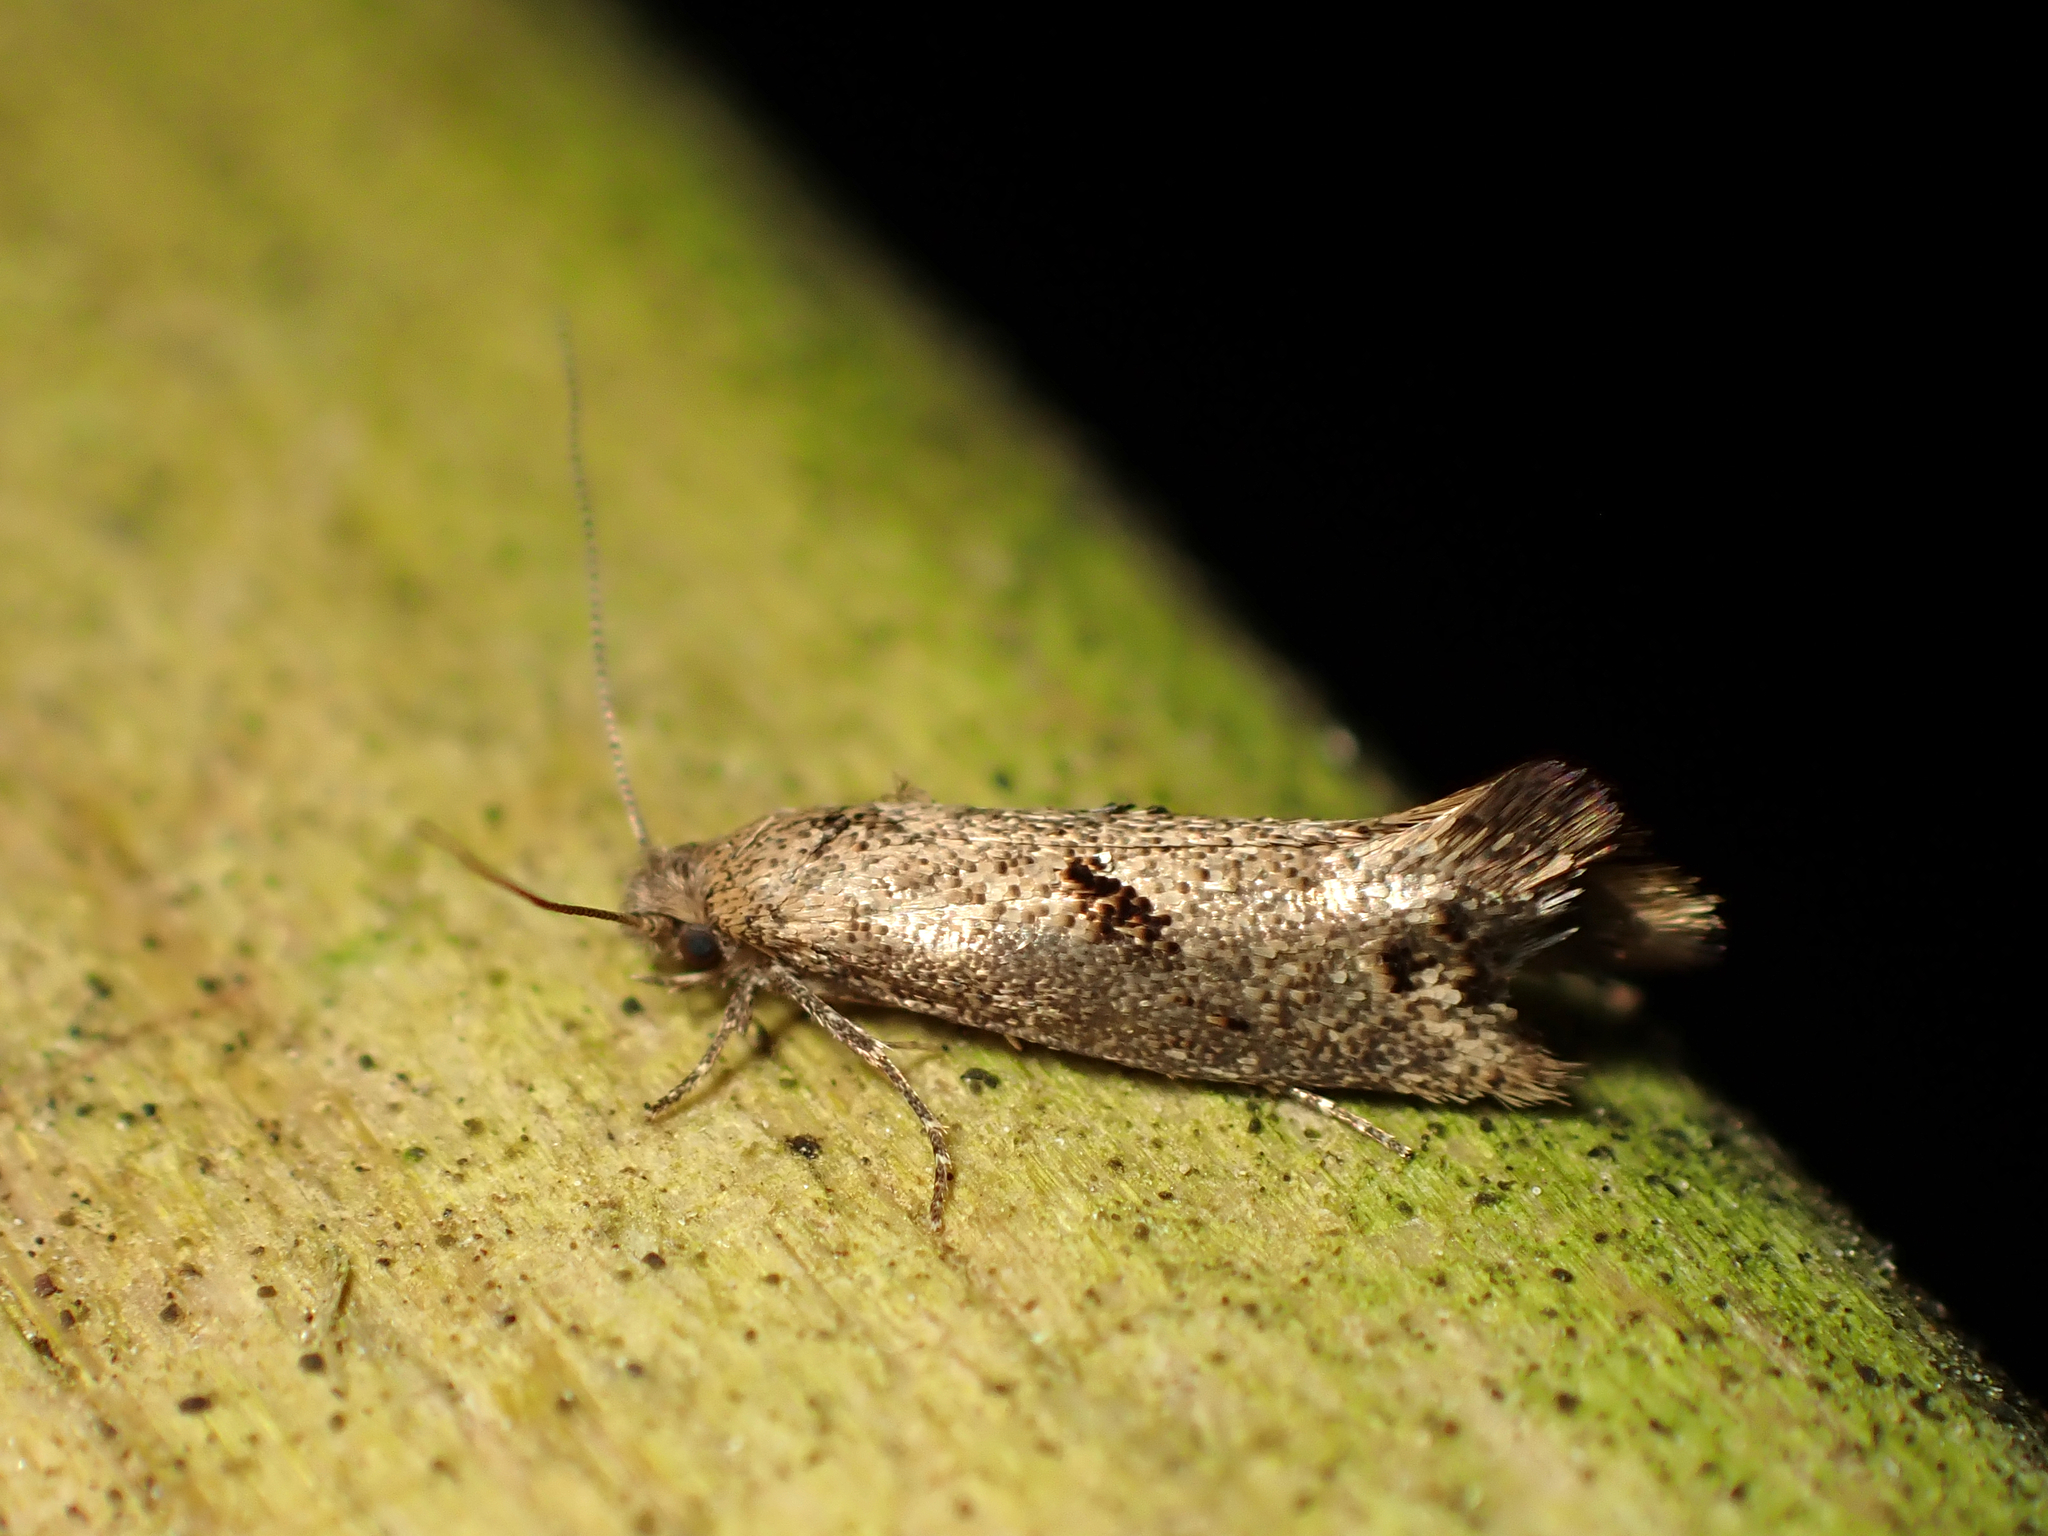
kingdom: Animalia
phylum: Arthropoda
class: Insecta
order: Lepidoptera
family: Tineidae
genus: Tinea
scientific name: Tinea mochlota
